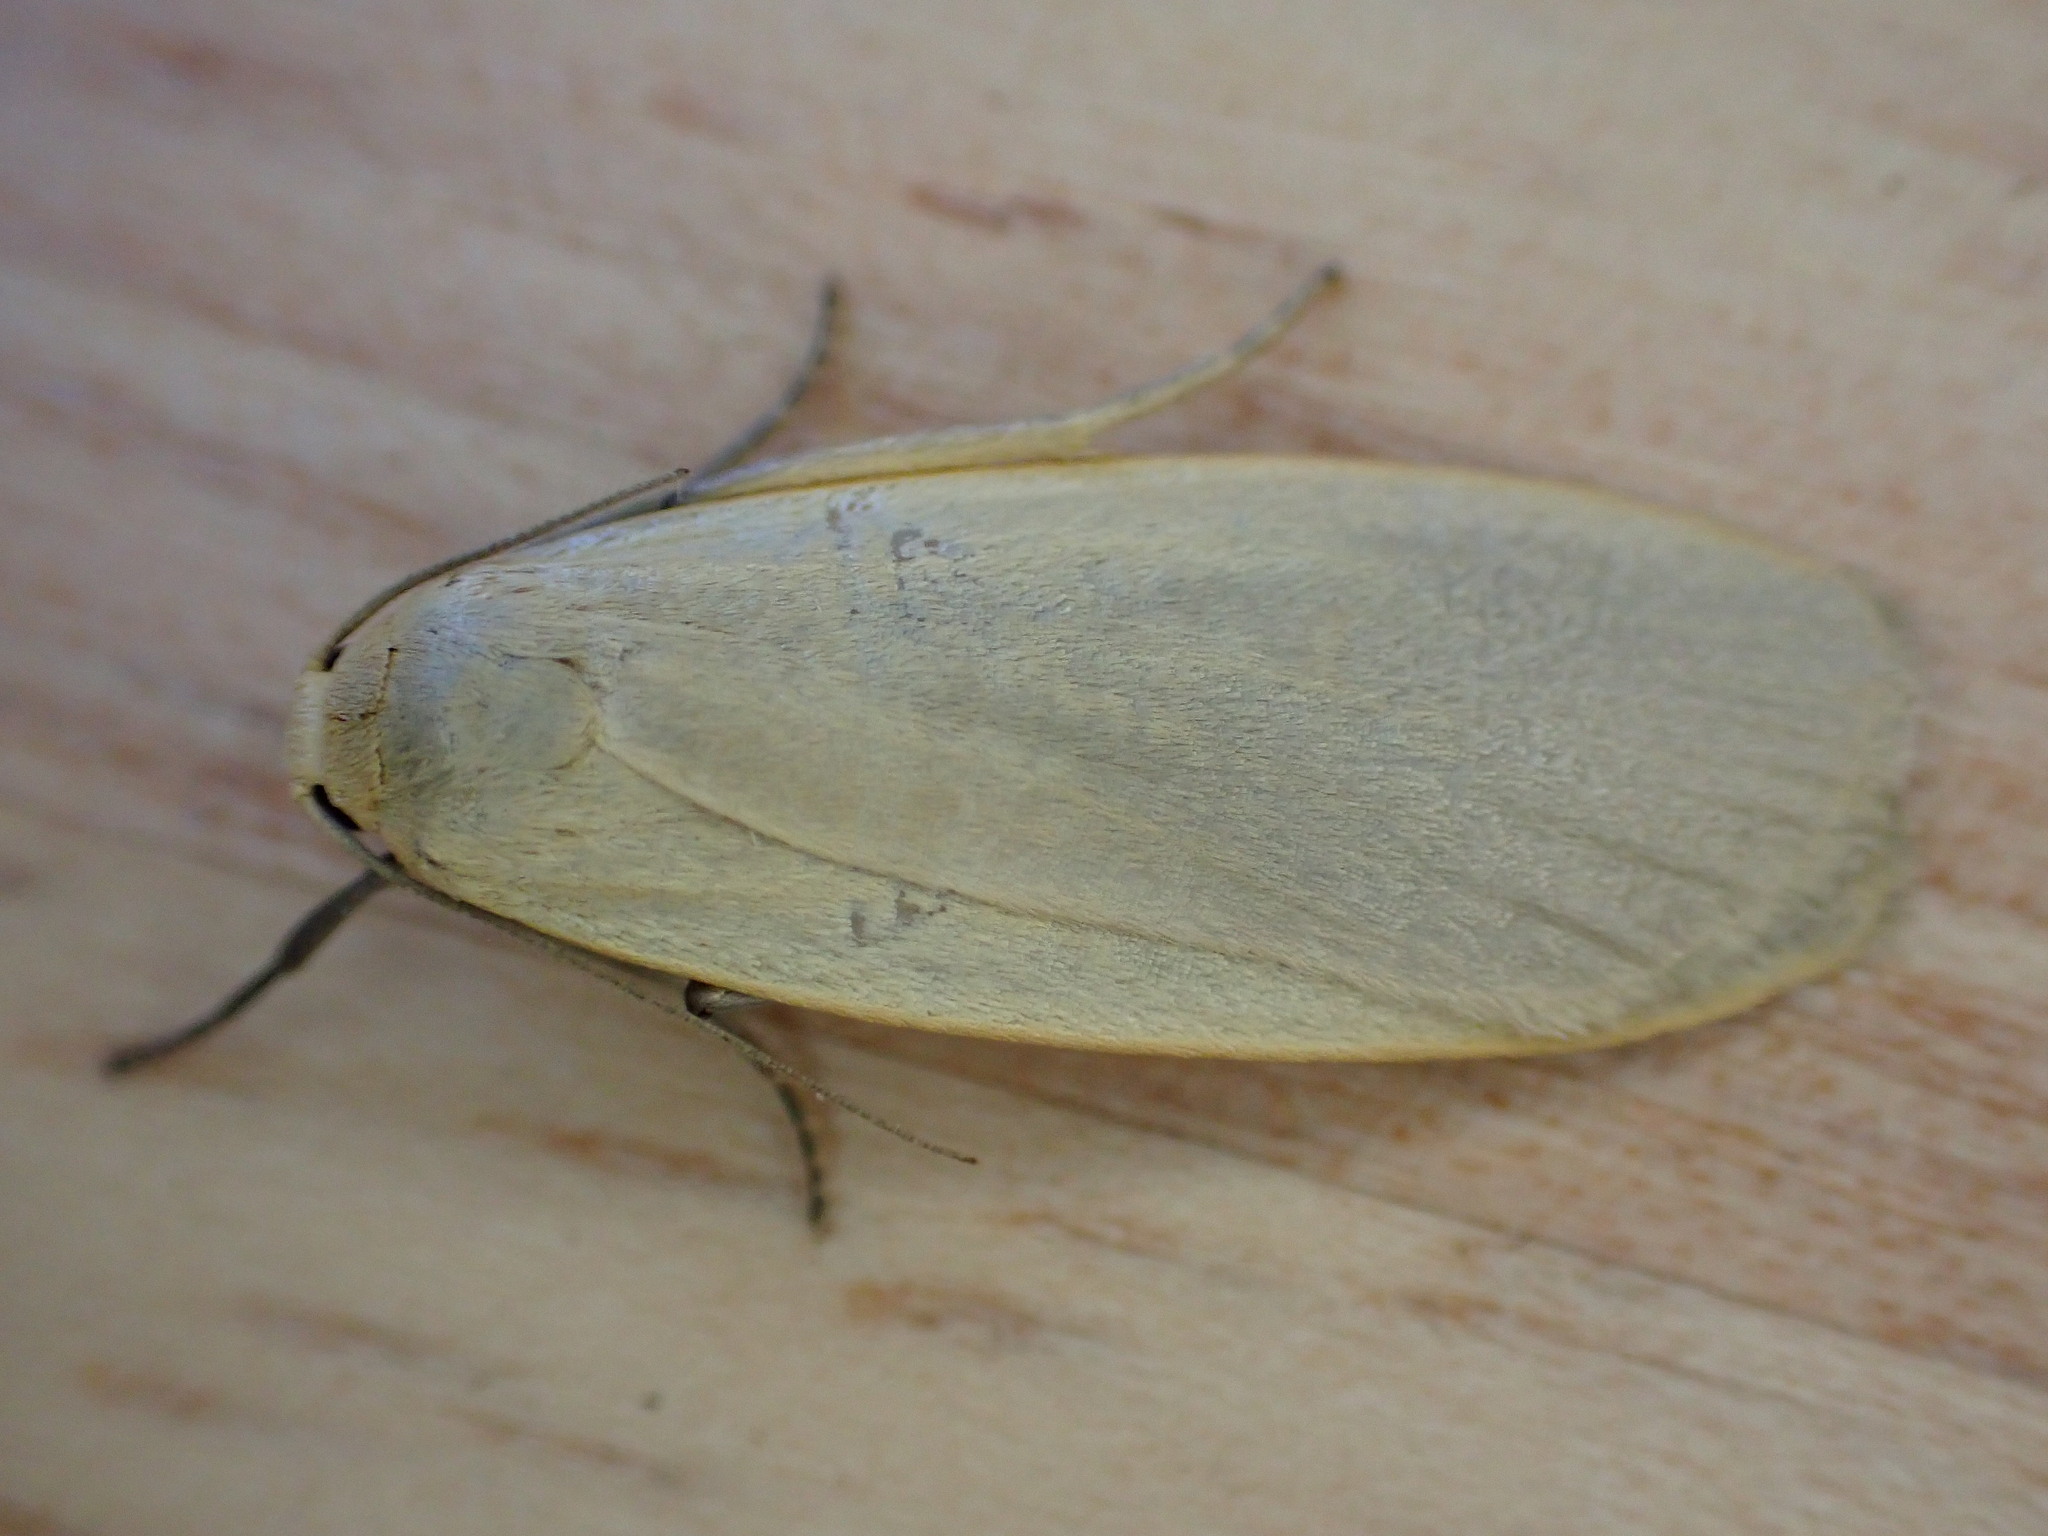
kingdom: Animalia
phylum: Arthropoda
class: Insecta
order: Lepidoptera
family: Erebidae
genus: Collita
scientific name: Collita griseola
